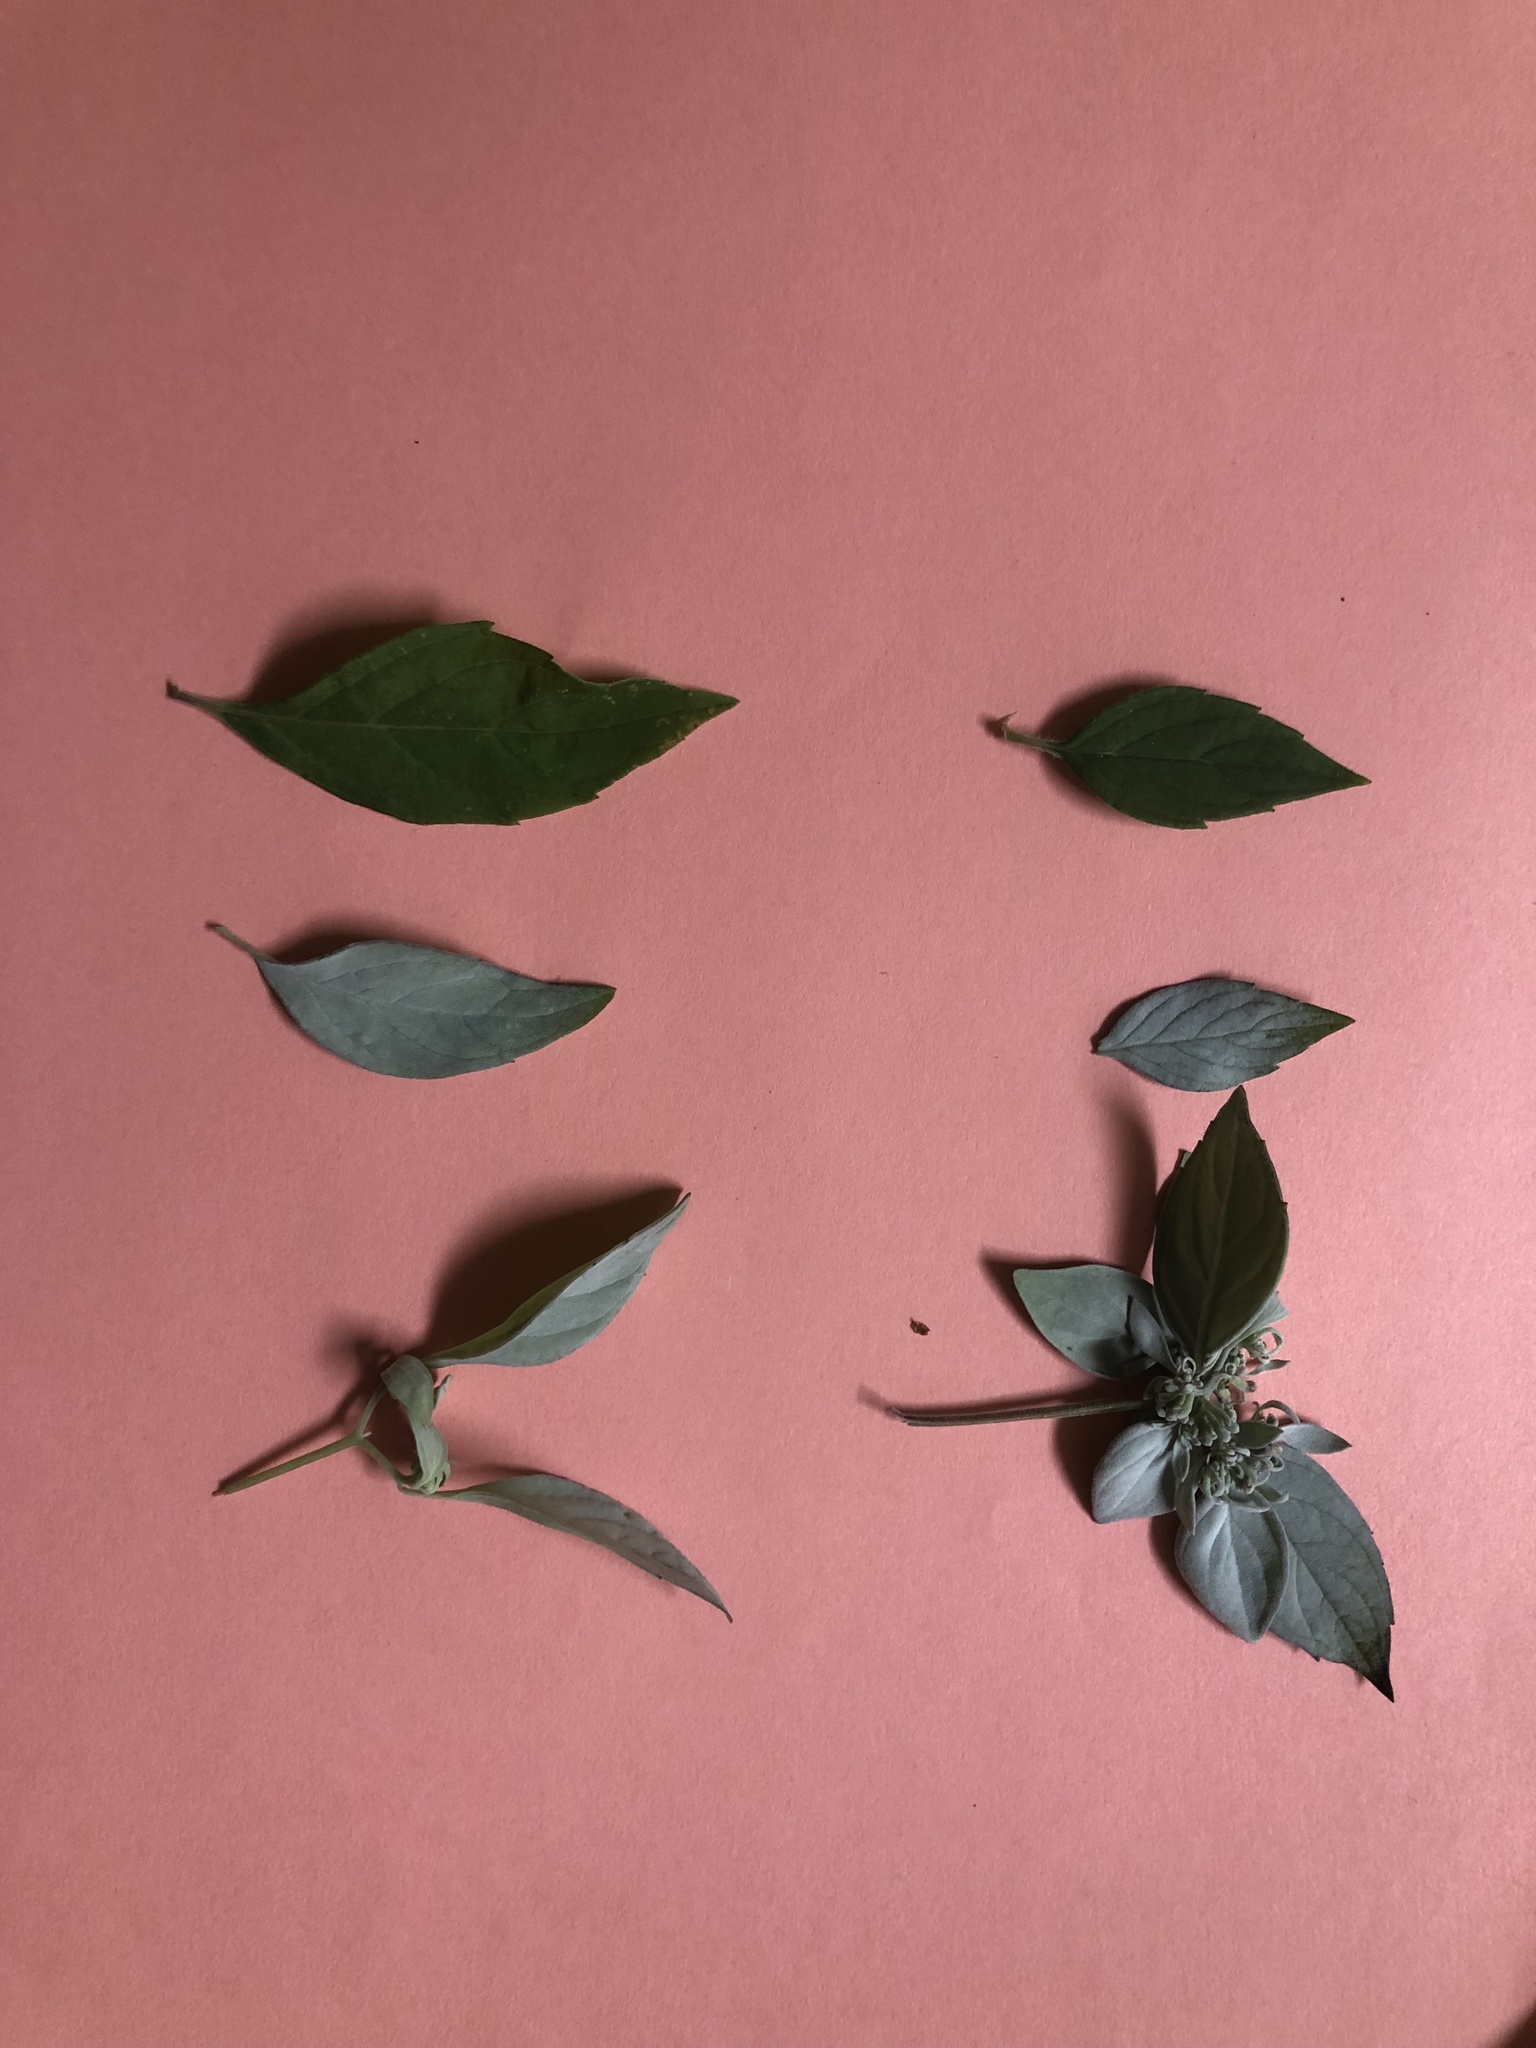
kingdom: Plantae
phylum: Tracheophyta
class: Magnoliopsida
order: Lamiales
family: Lamiaceae
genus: Pycnanthemum
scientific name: Pycnanthemum incanum
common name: Hoary mountain-mint
